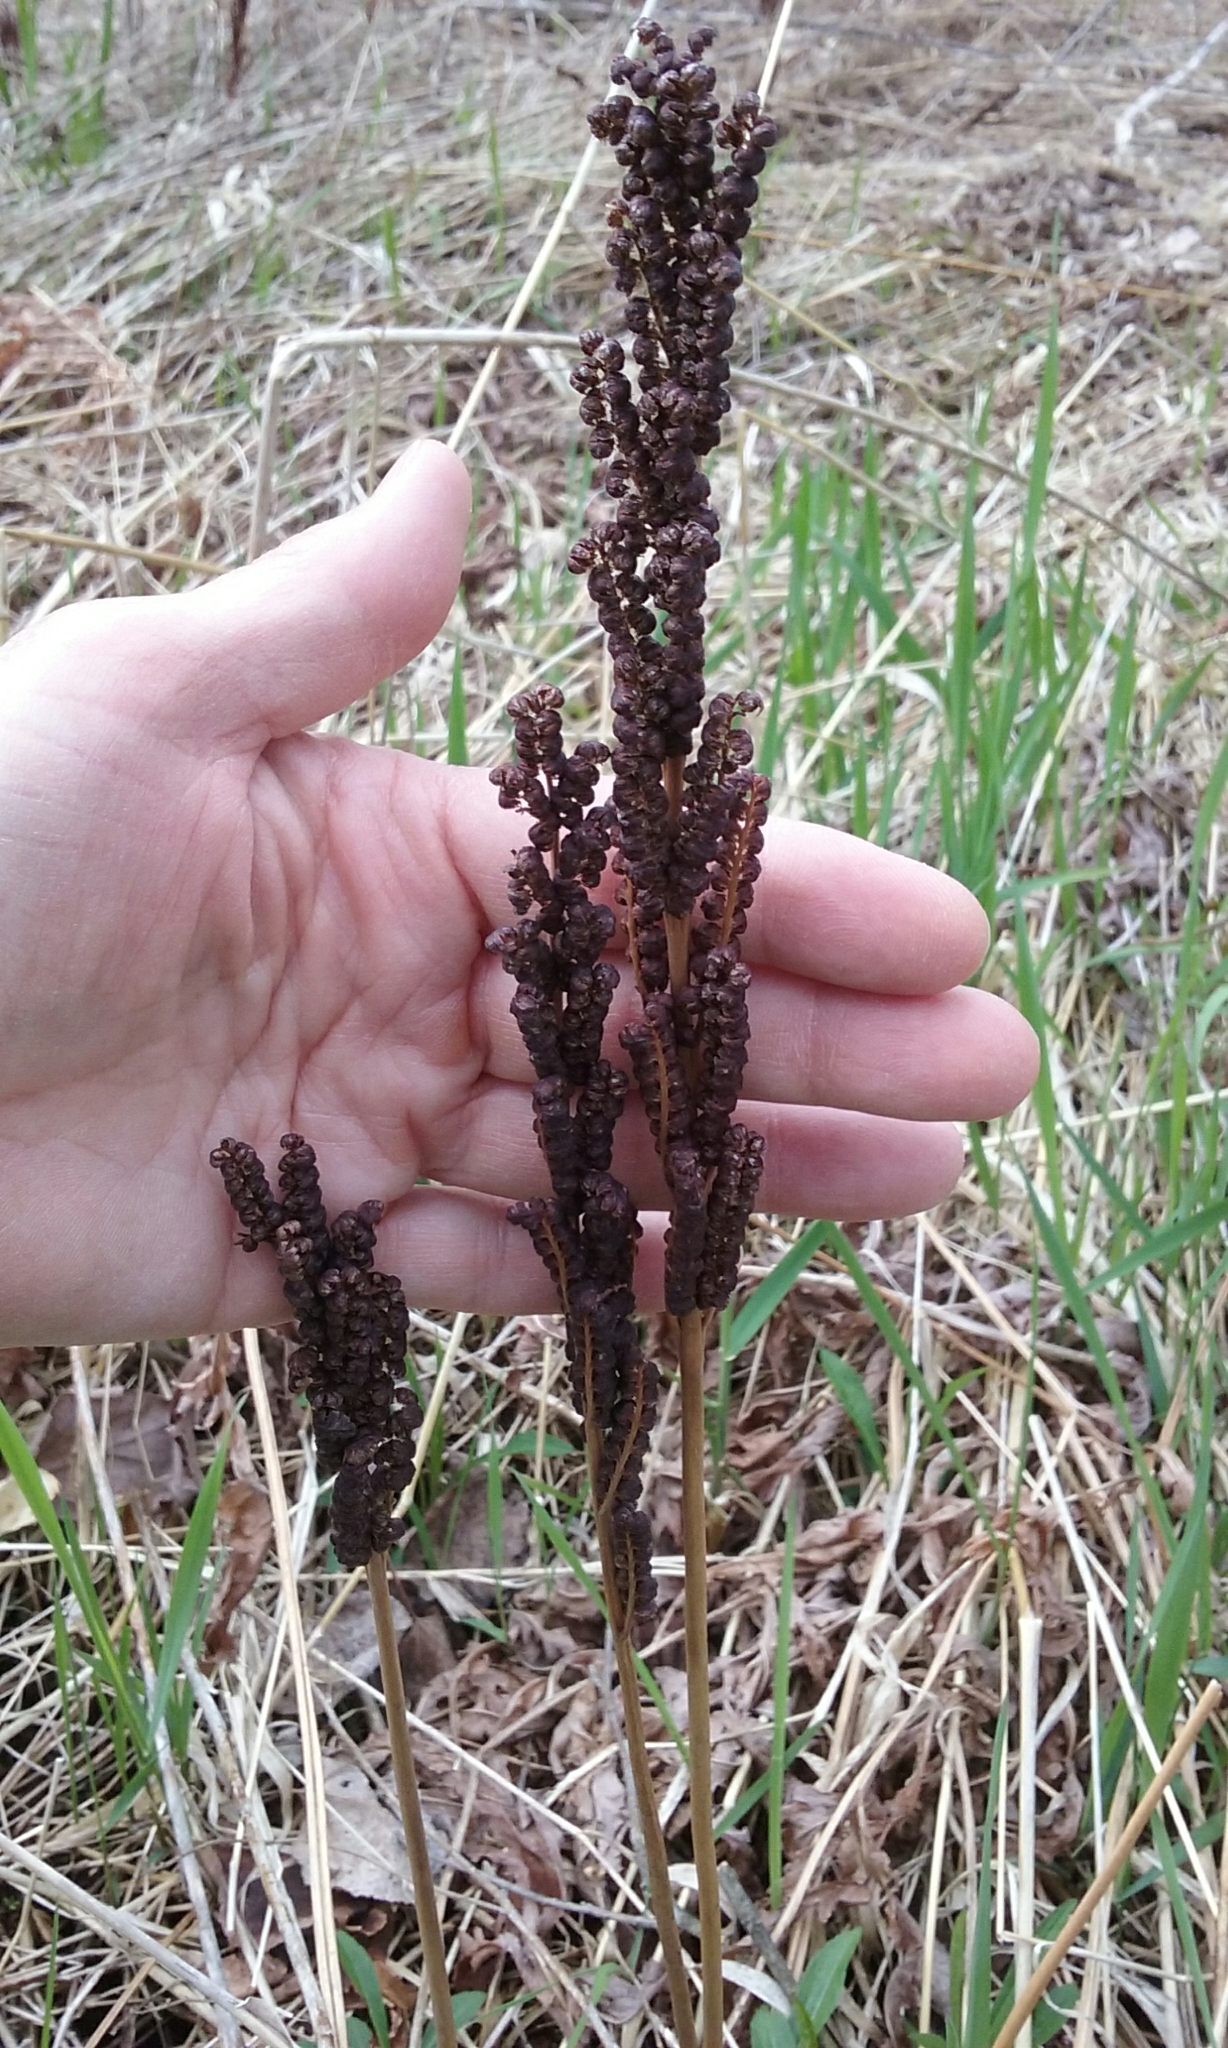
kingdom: Plantae
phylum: Tracheophyta
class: Polypodiopsida
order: Polypodiales
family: Onocleaceae
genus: Onoclea
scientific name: Onoclea sensibilis
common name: Sensitive fern
